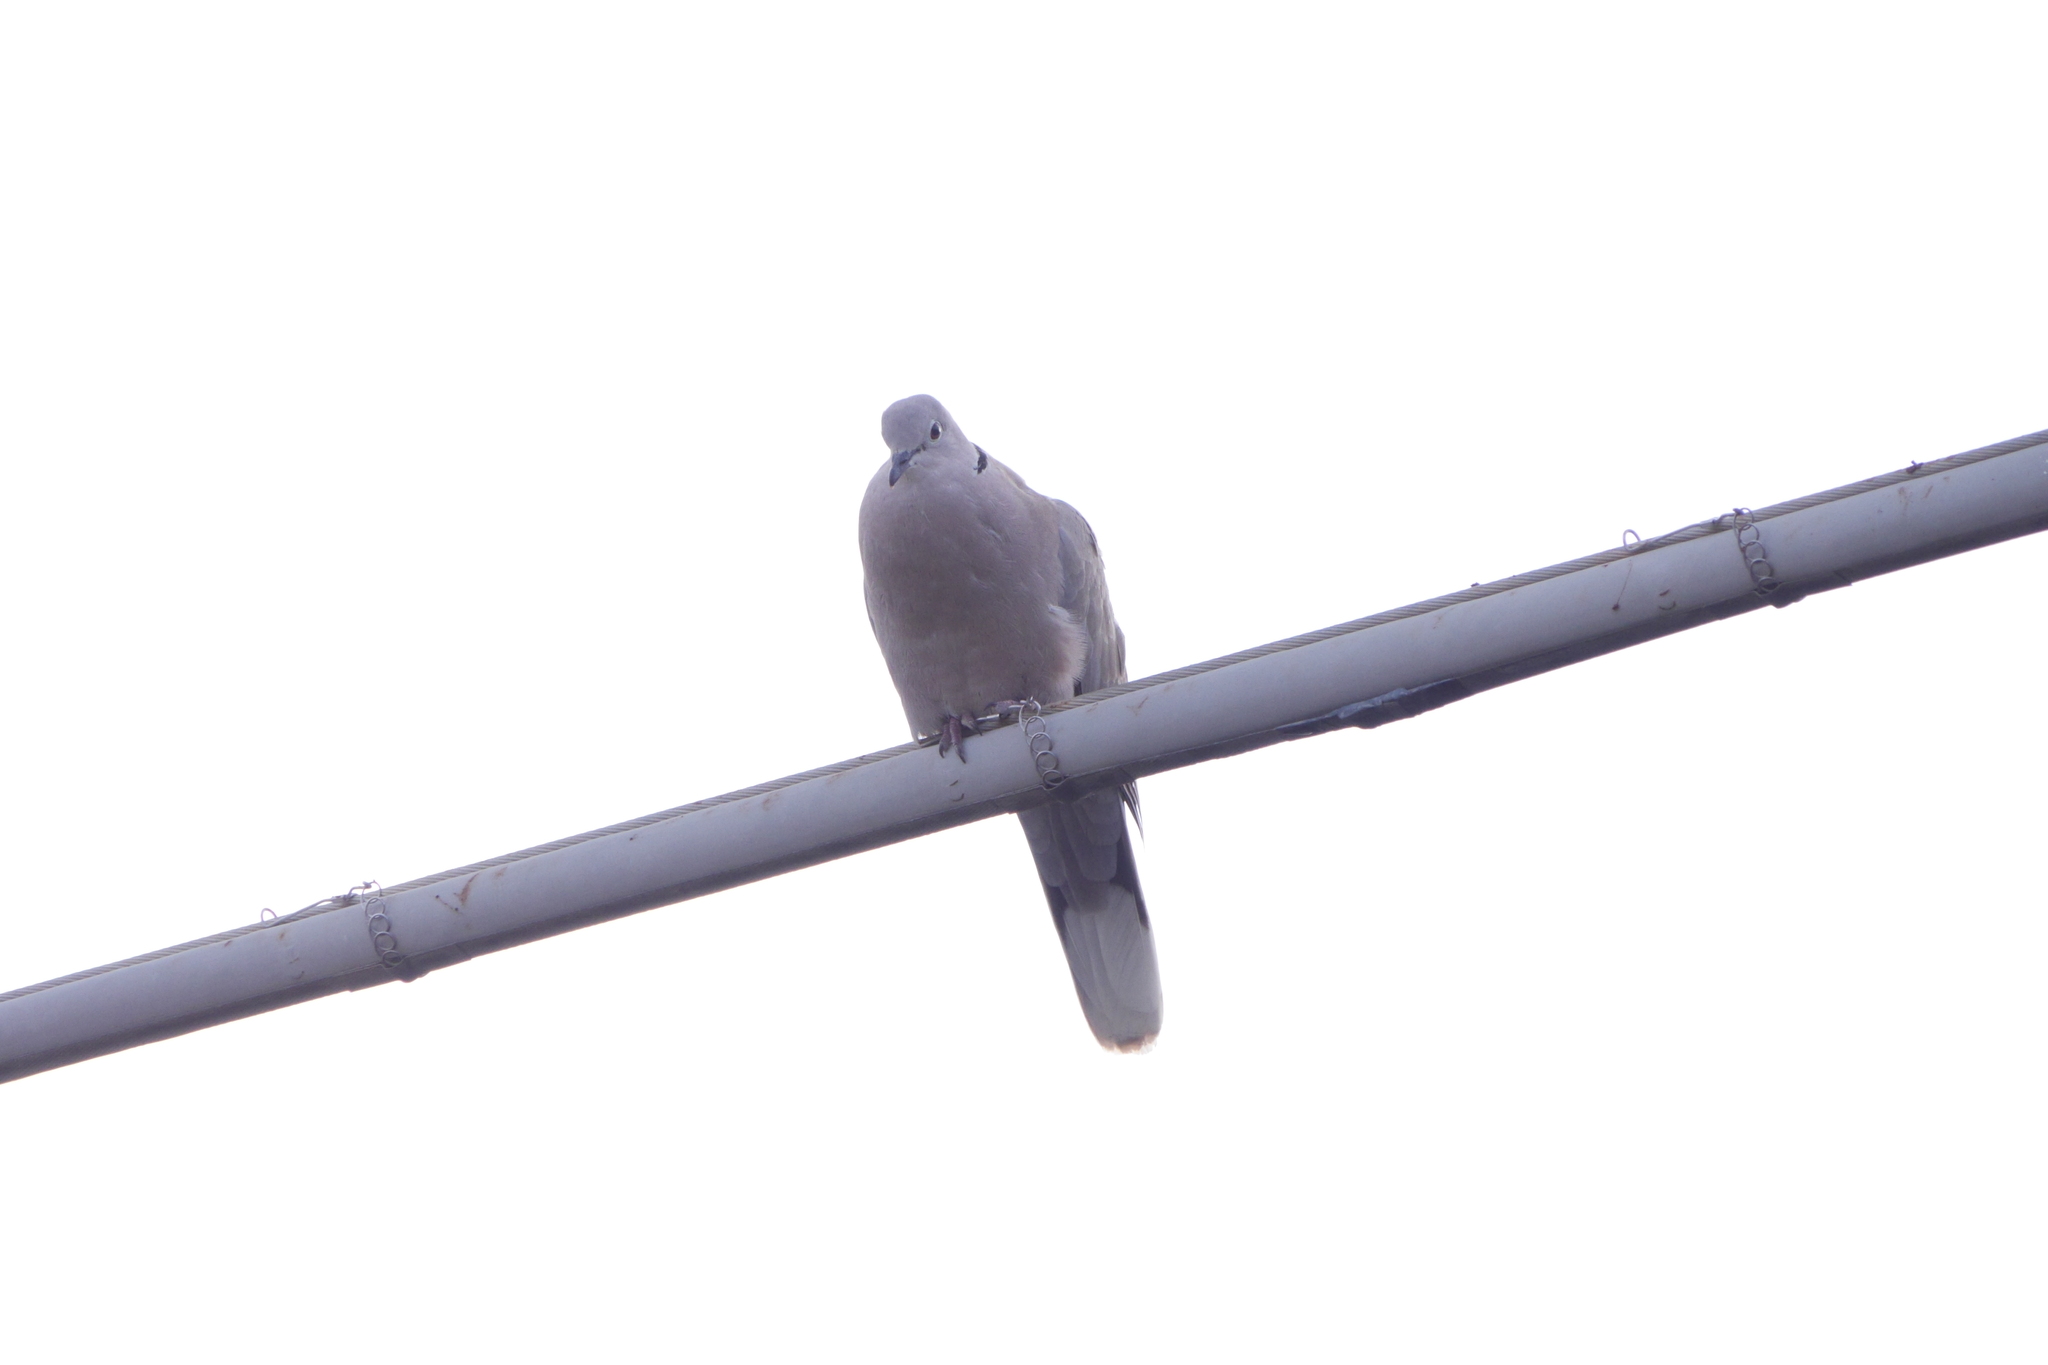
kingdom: Animalia
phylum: Chordata
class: Aves
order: Columbiformes
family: Columbidae
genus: Streptopelia
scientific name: Streptopelia decaocto
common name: Eurasian collared dove
